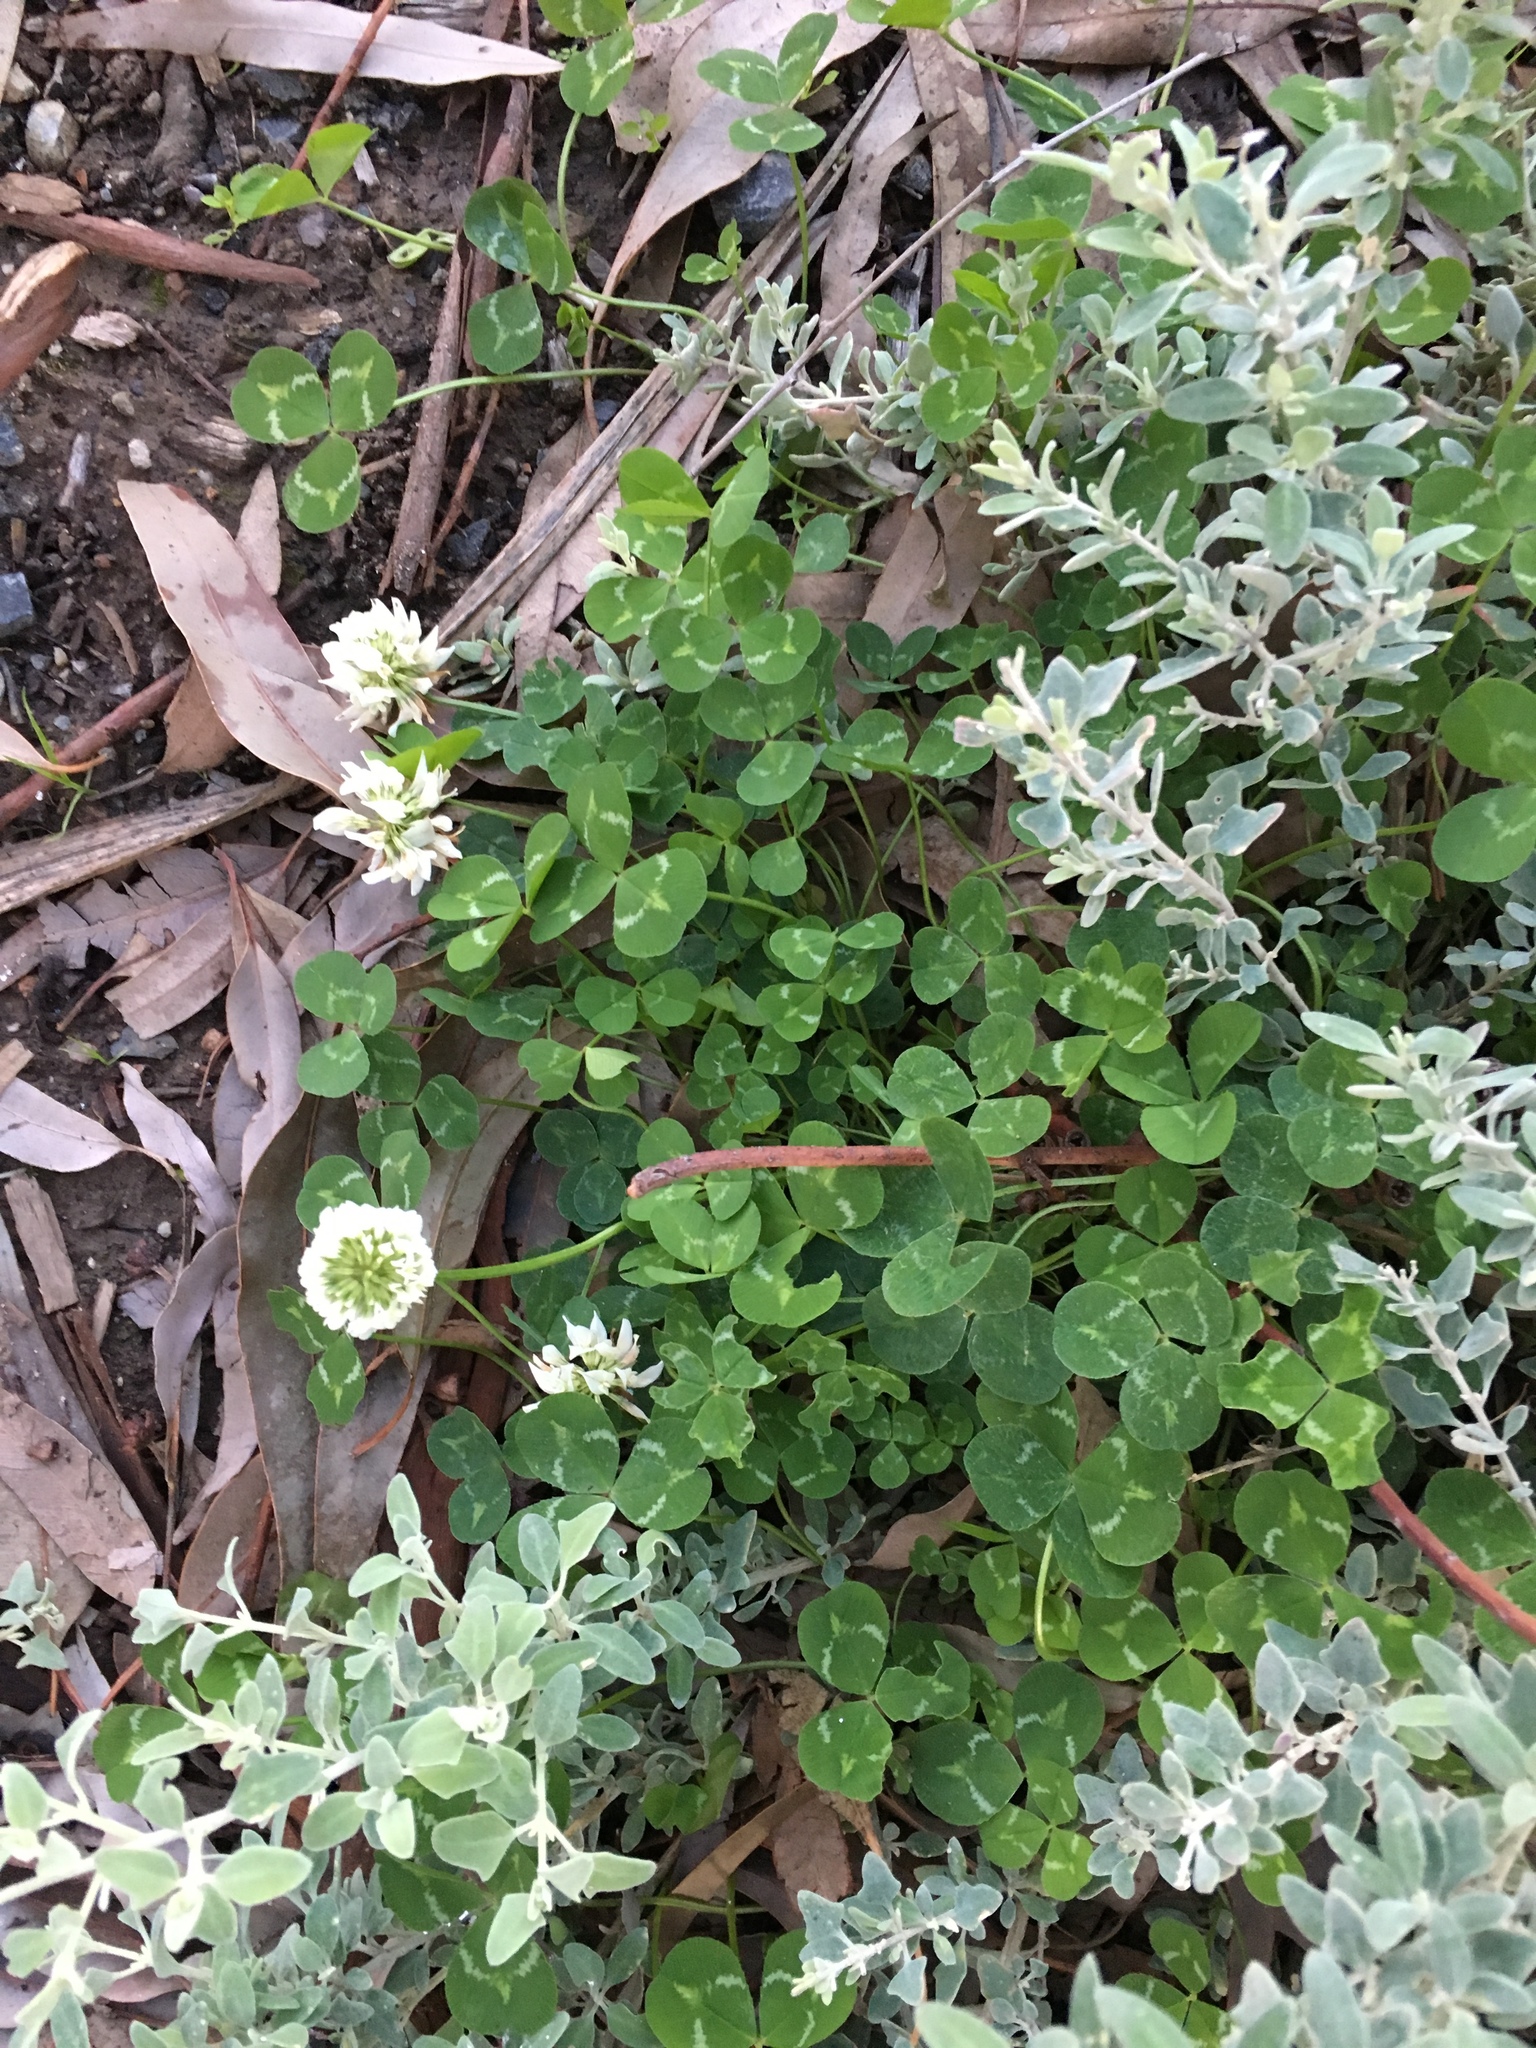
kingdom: Plantae
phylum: Tracheophyta
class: Magnoliopsida
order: Fabales
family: Fabaceae
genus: Trifolium
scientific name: Trifolium repens
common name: White clover
